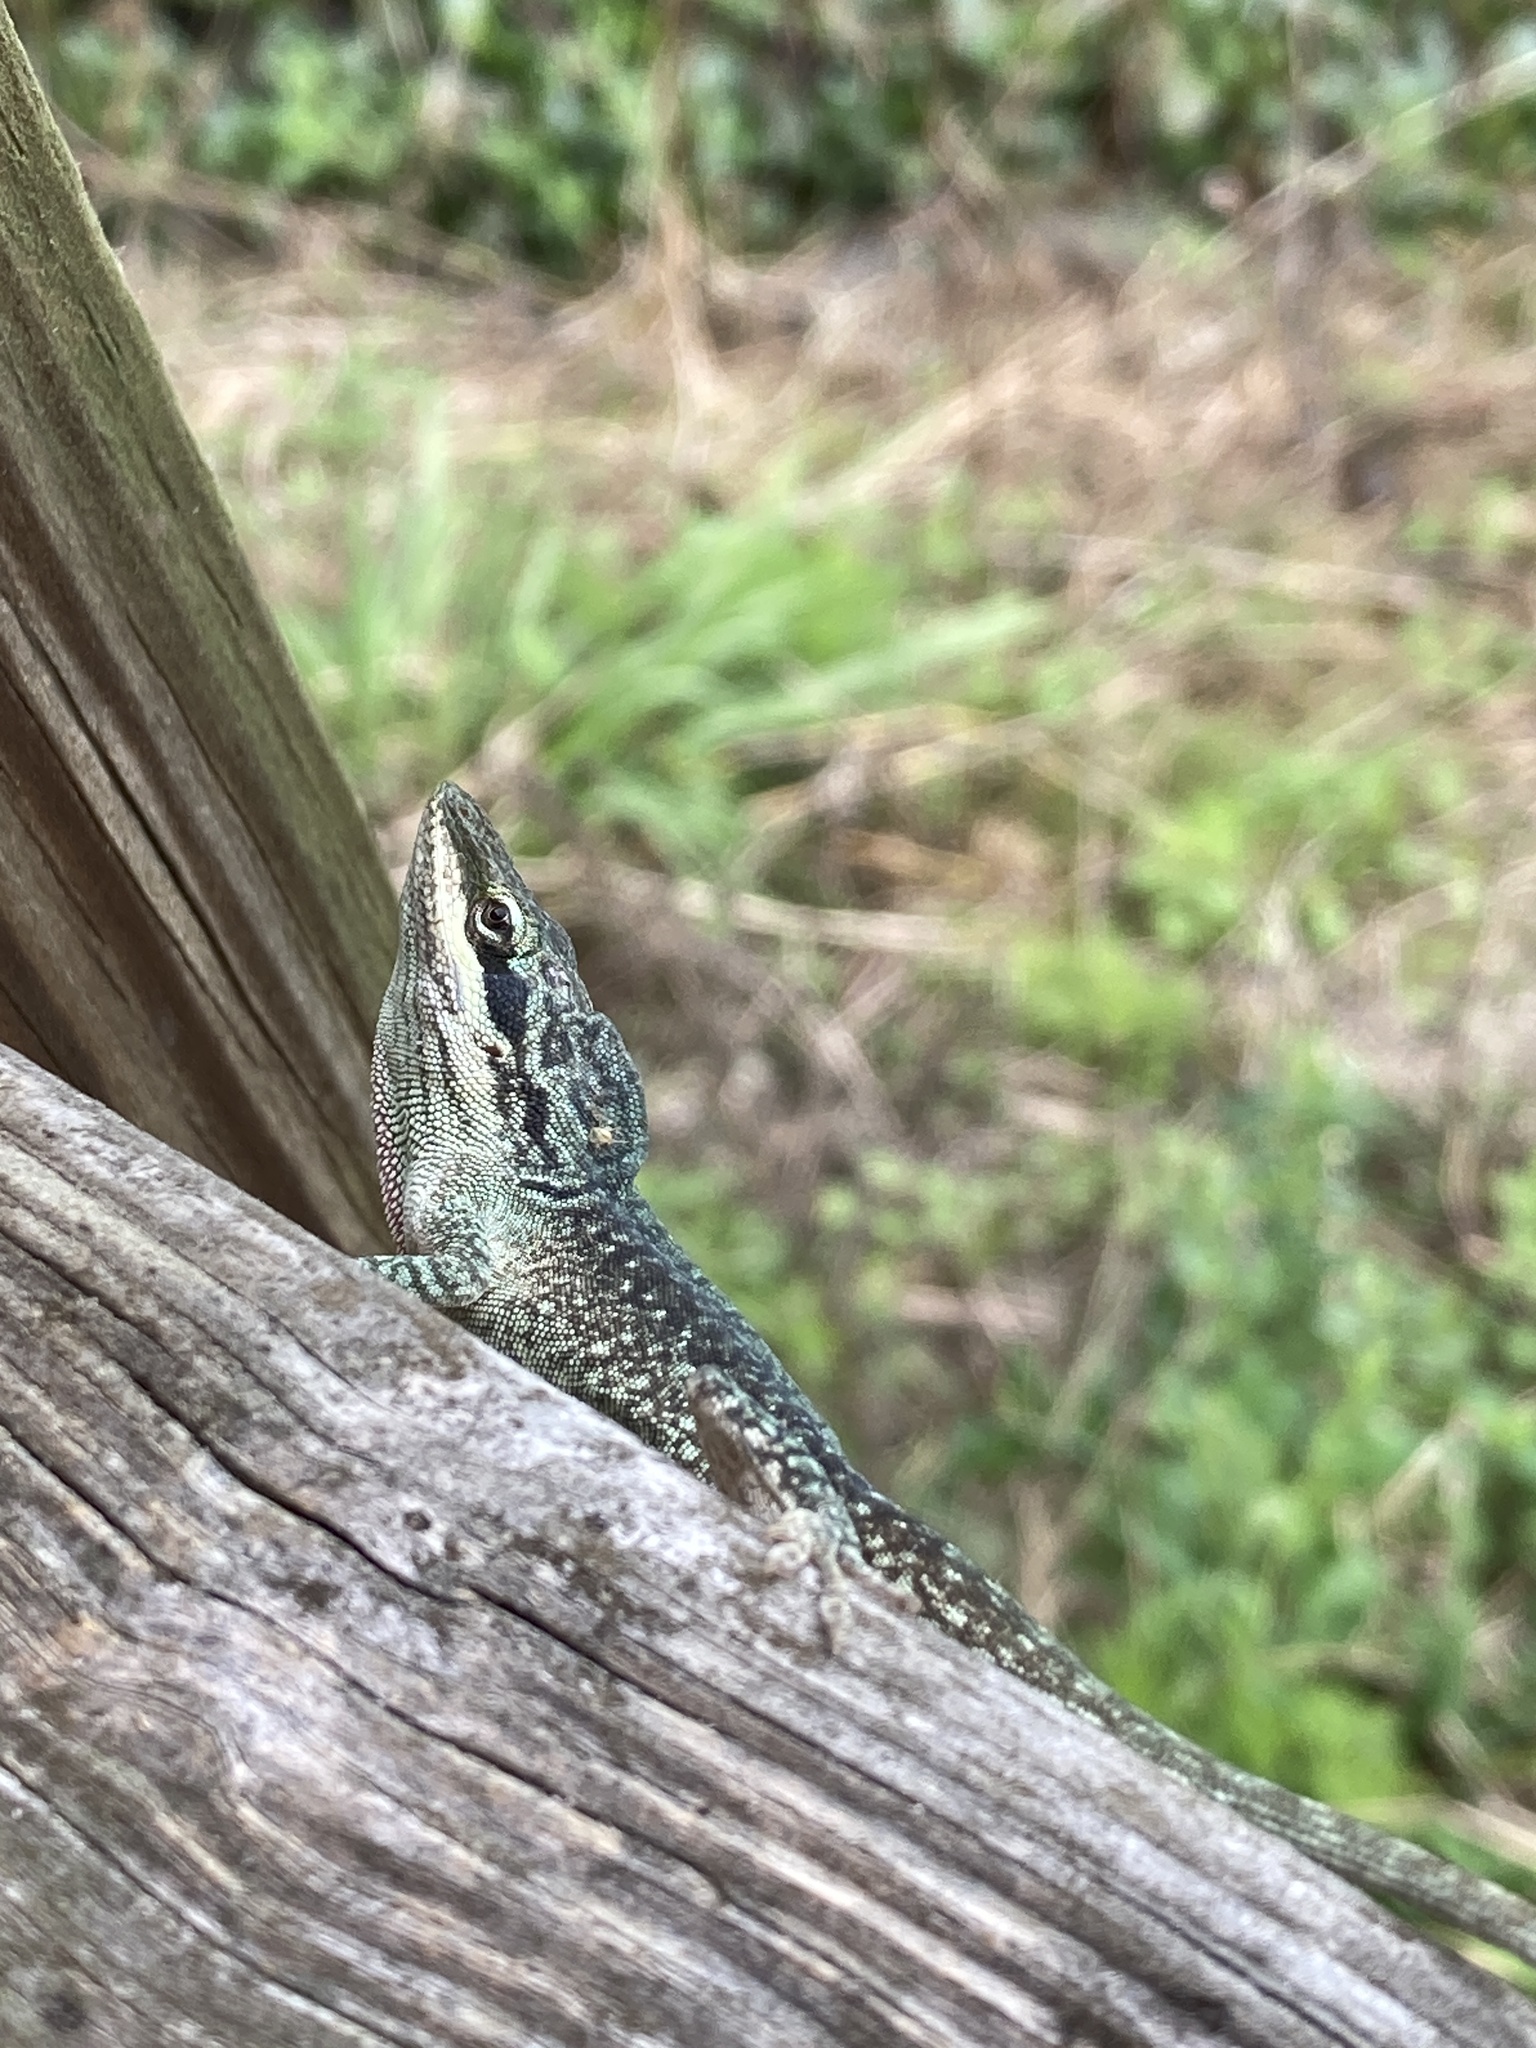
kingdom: Animalia
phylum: Chordata
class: Squamata
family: Dactyloidae
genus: Anolis
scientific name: Anolis carolinensis
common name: Green anole
